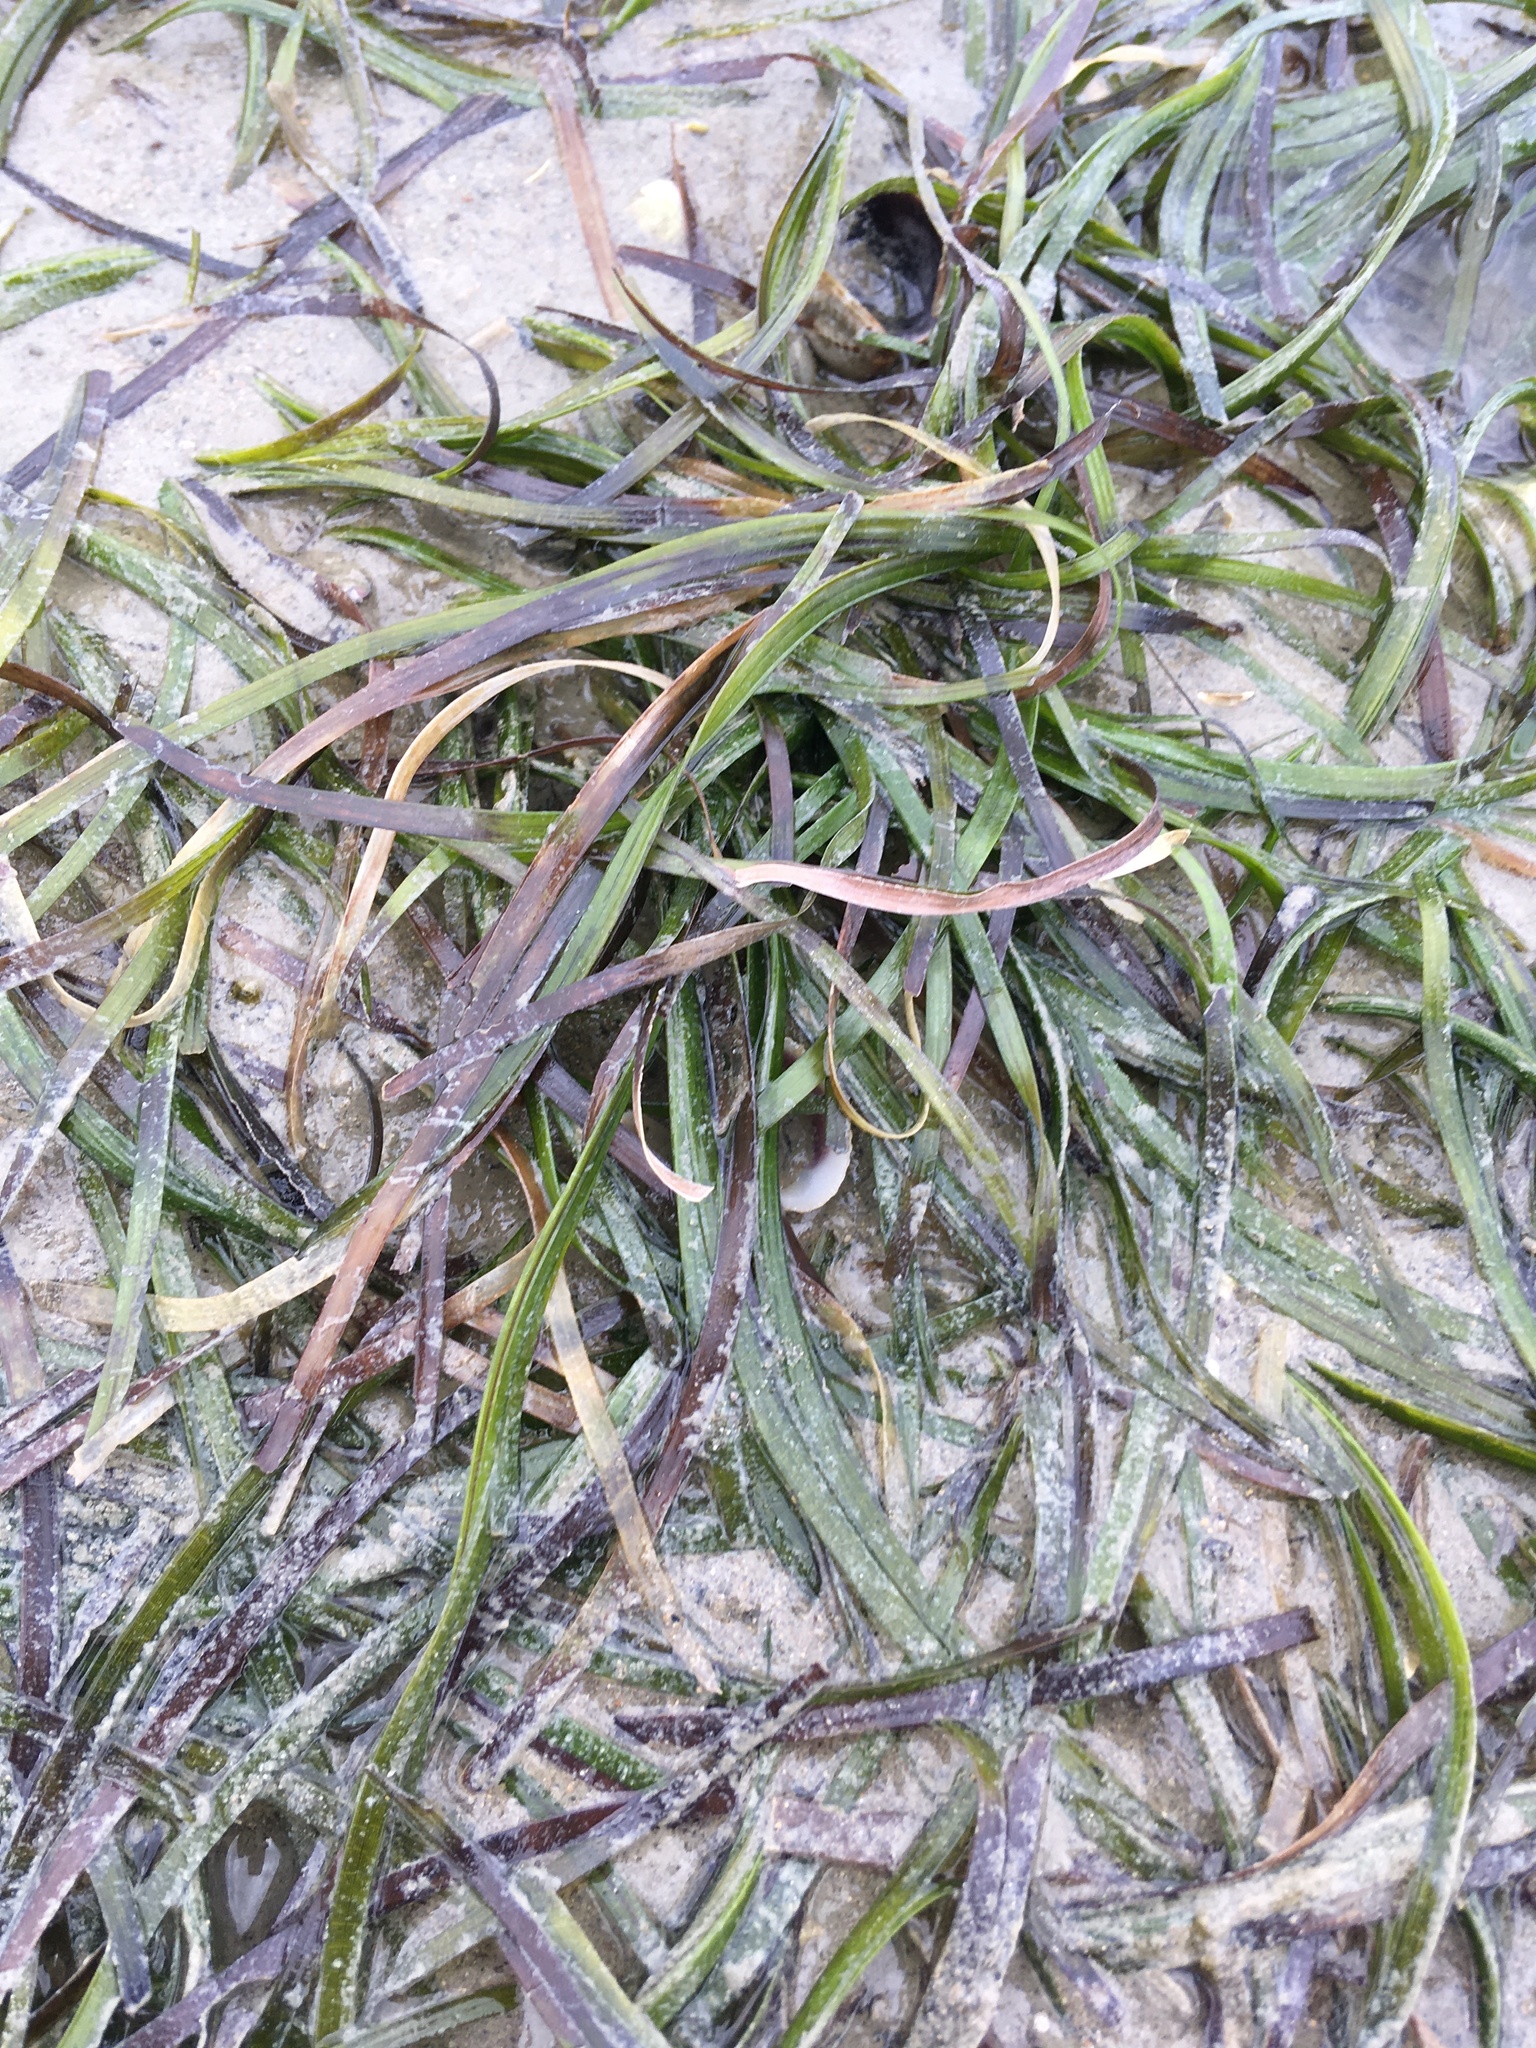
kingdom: Plantae
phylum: Tracheophyta
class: Liliopsida
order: Alismatales
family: Zosteraceae
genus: Zostera
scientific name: Zostera muelleri
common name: Species code: zc
